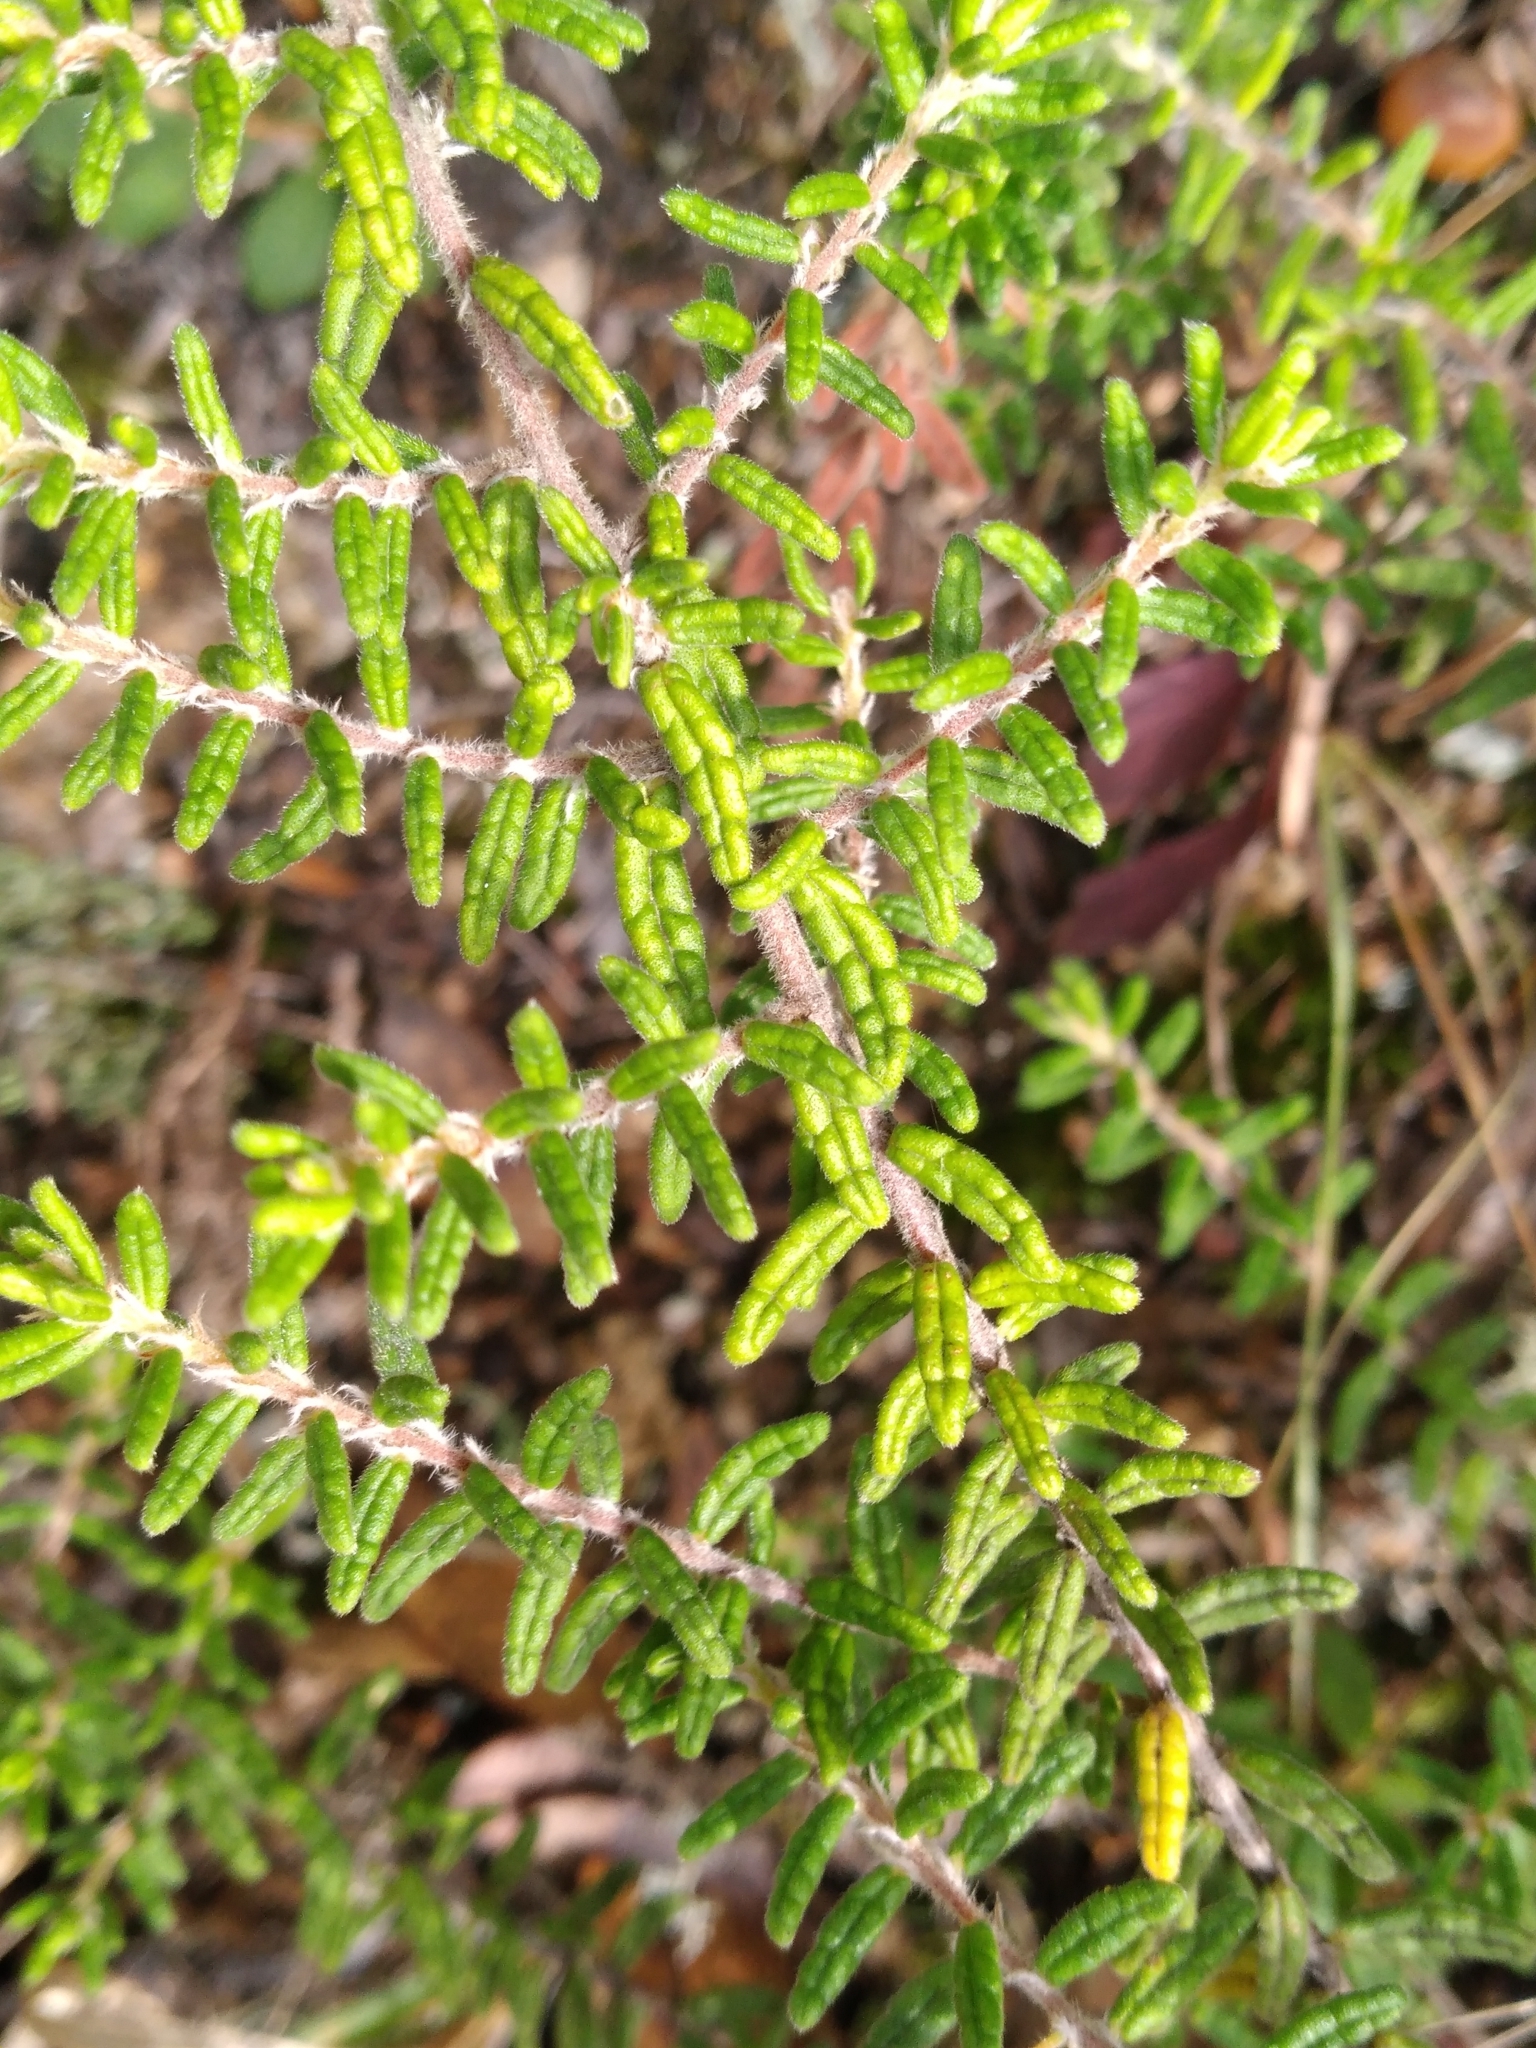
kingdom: Plantae
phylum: Tracheophyta
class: Magnoliopsida
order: Rosales
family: Rhamnaceae
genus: Pomaderris
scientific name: Pomaderris amoena
